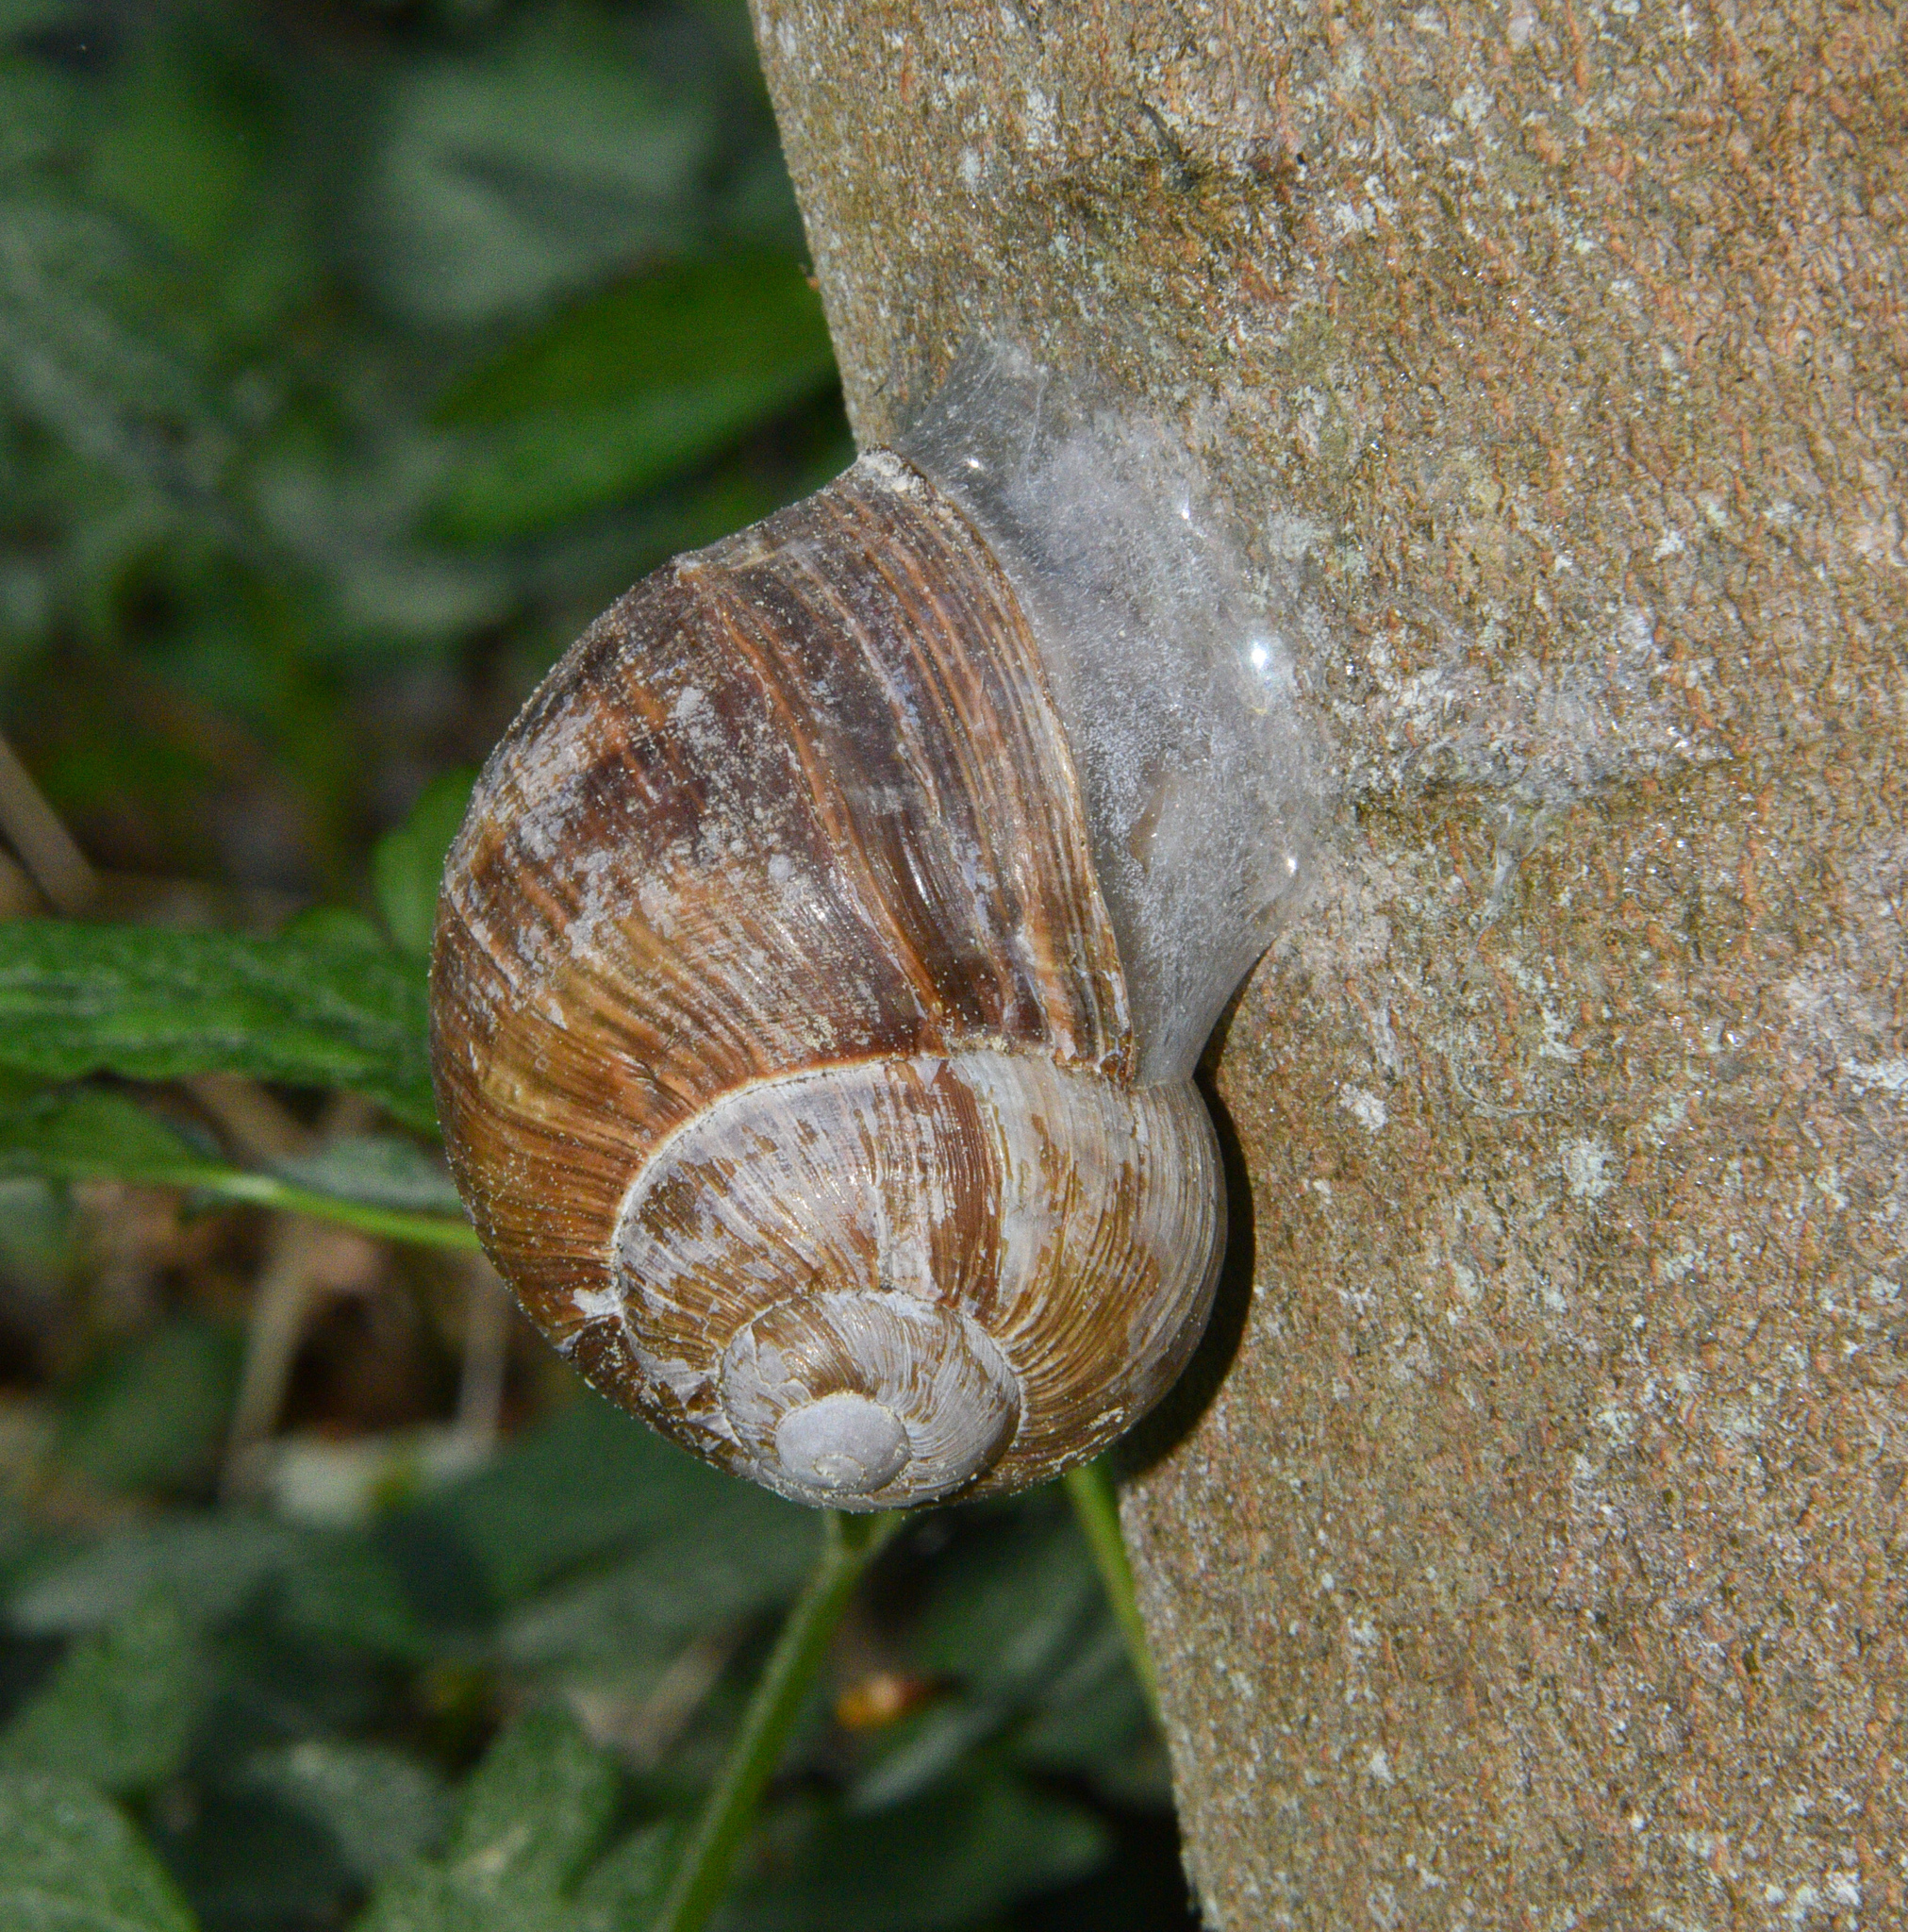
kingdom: Animalia
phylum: Mollusca
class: Gastropoda
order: Stylommatophora
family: Helicidae
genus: Helix
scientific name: Helix pomatia
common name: Roman snail
